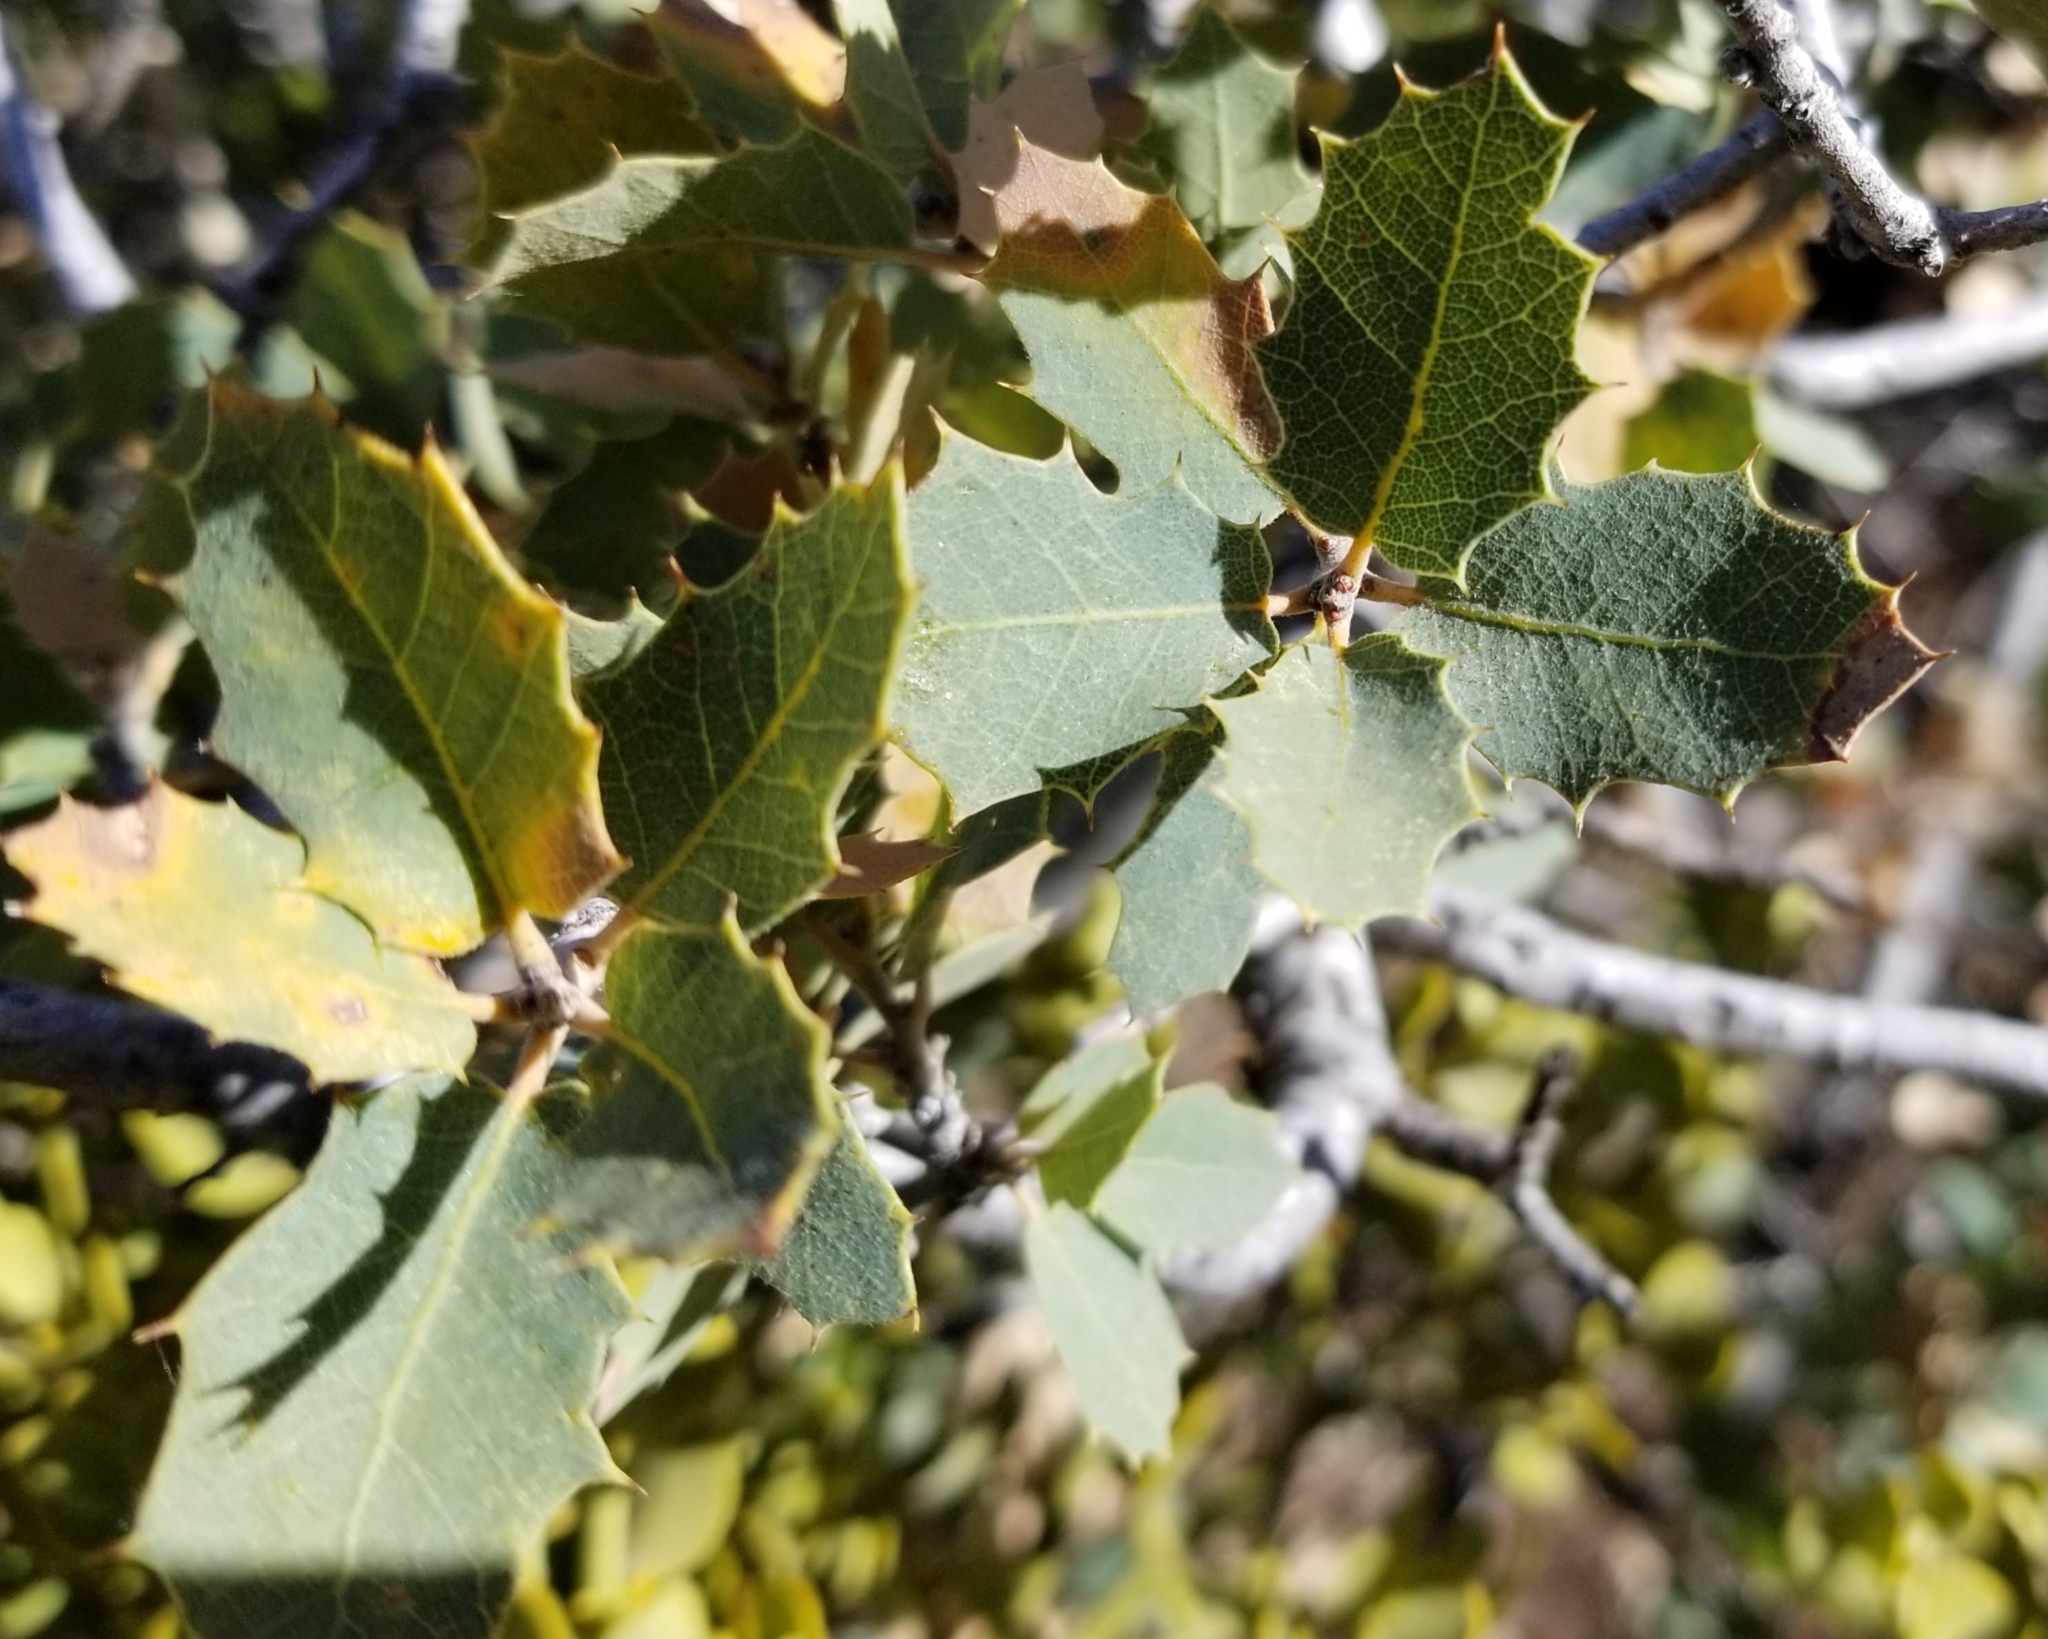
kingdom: Plantae
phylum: Tracheophyta
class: Magnoliopsida
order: Fagales
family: Fagaceae
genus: Quercus
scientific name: Quercus turbinella
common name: Sonoran scrub oak
